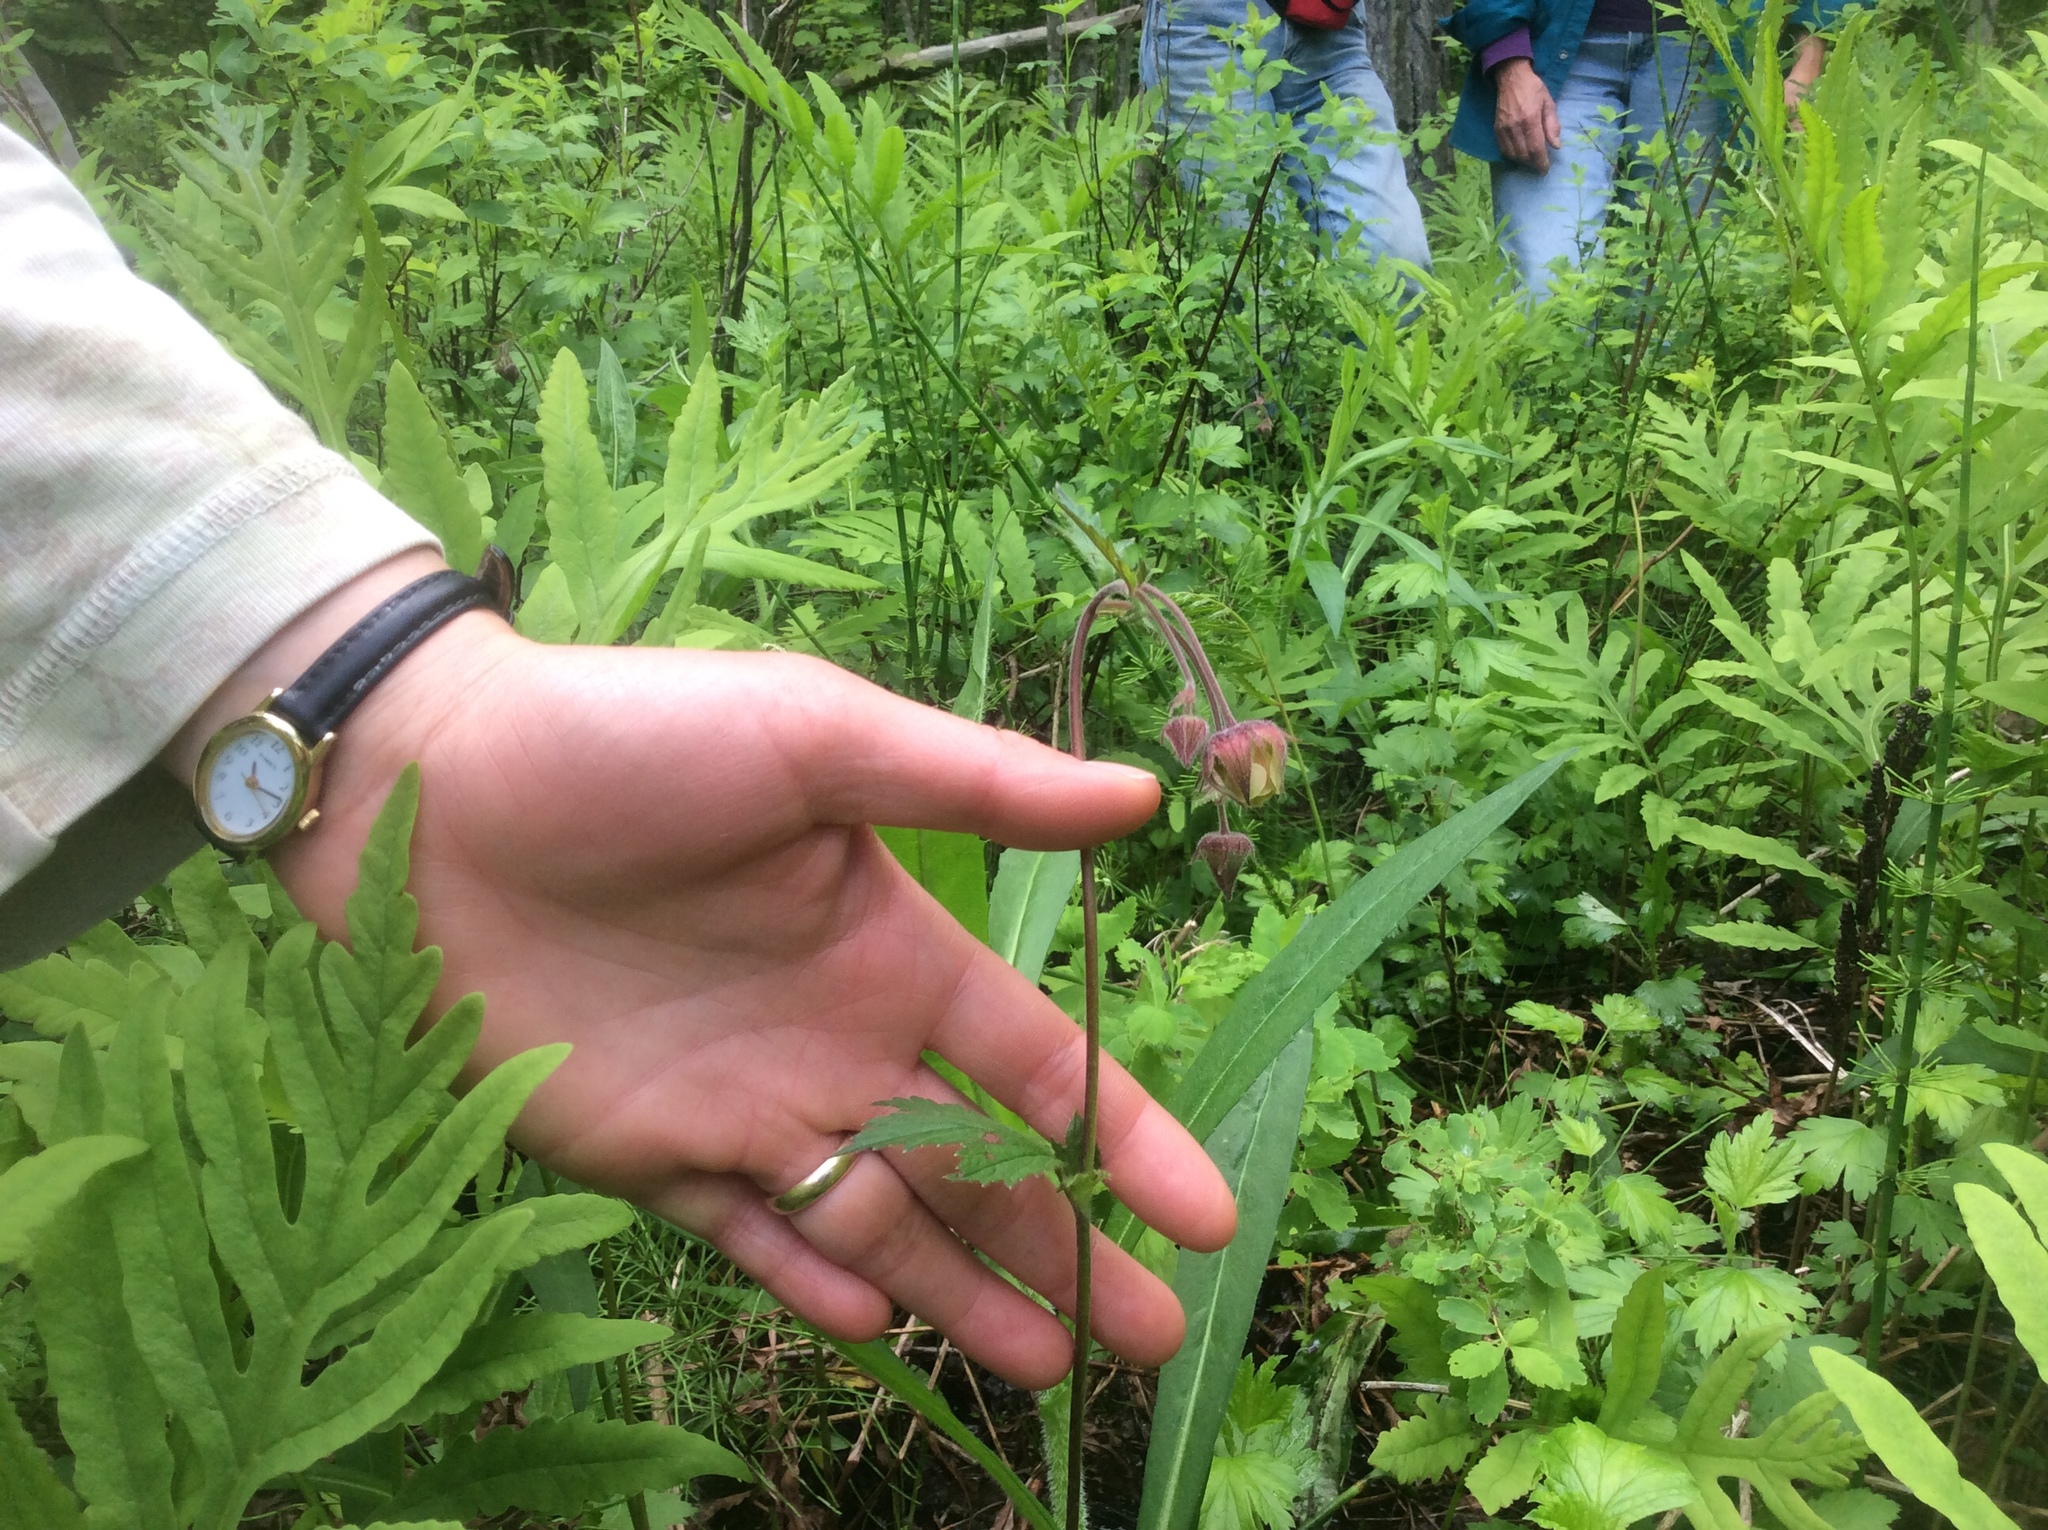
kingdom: Plantae
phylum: Tracheophyta
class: Magnoliopsida
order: Rosales
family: Rosaceae
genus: Geum
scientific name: Geum rivale
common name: Water avens
